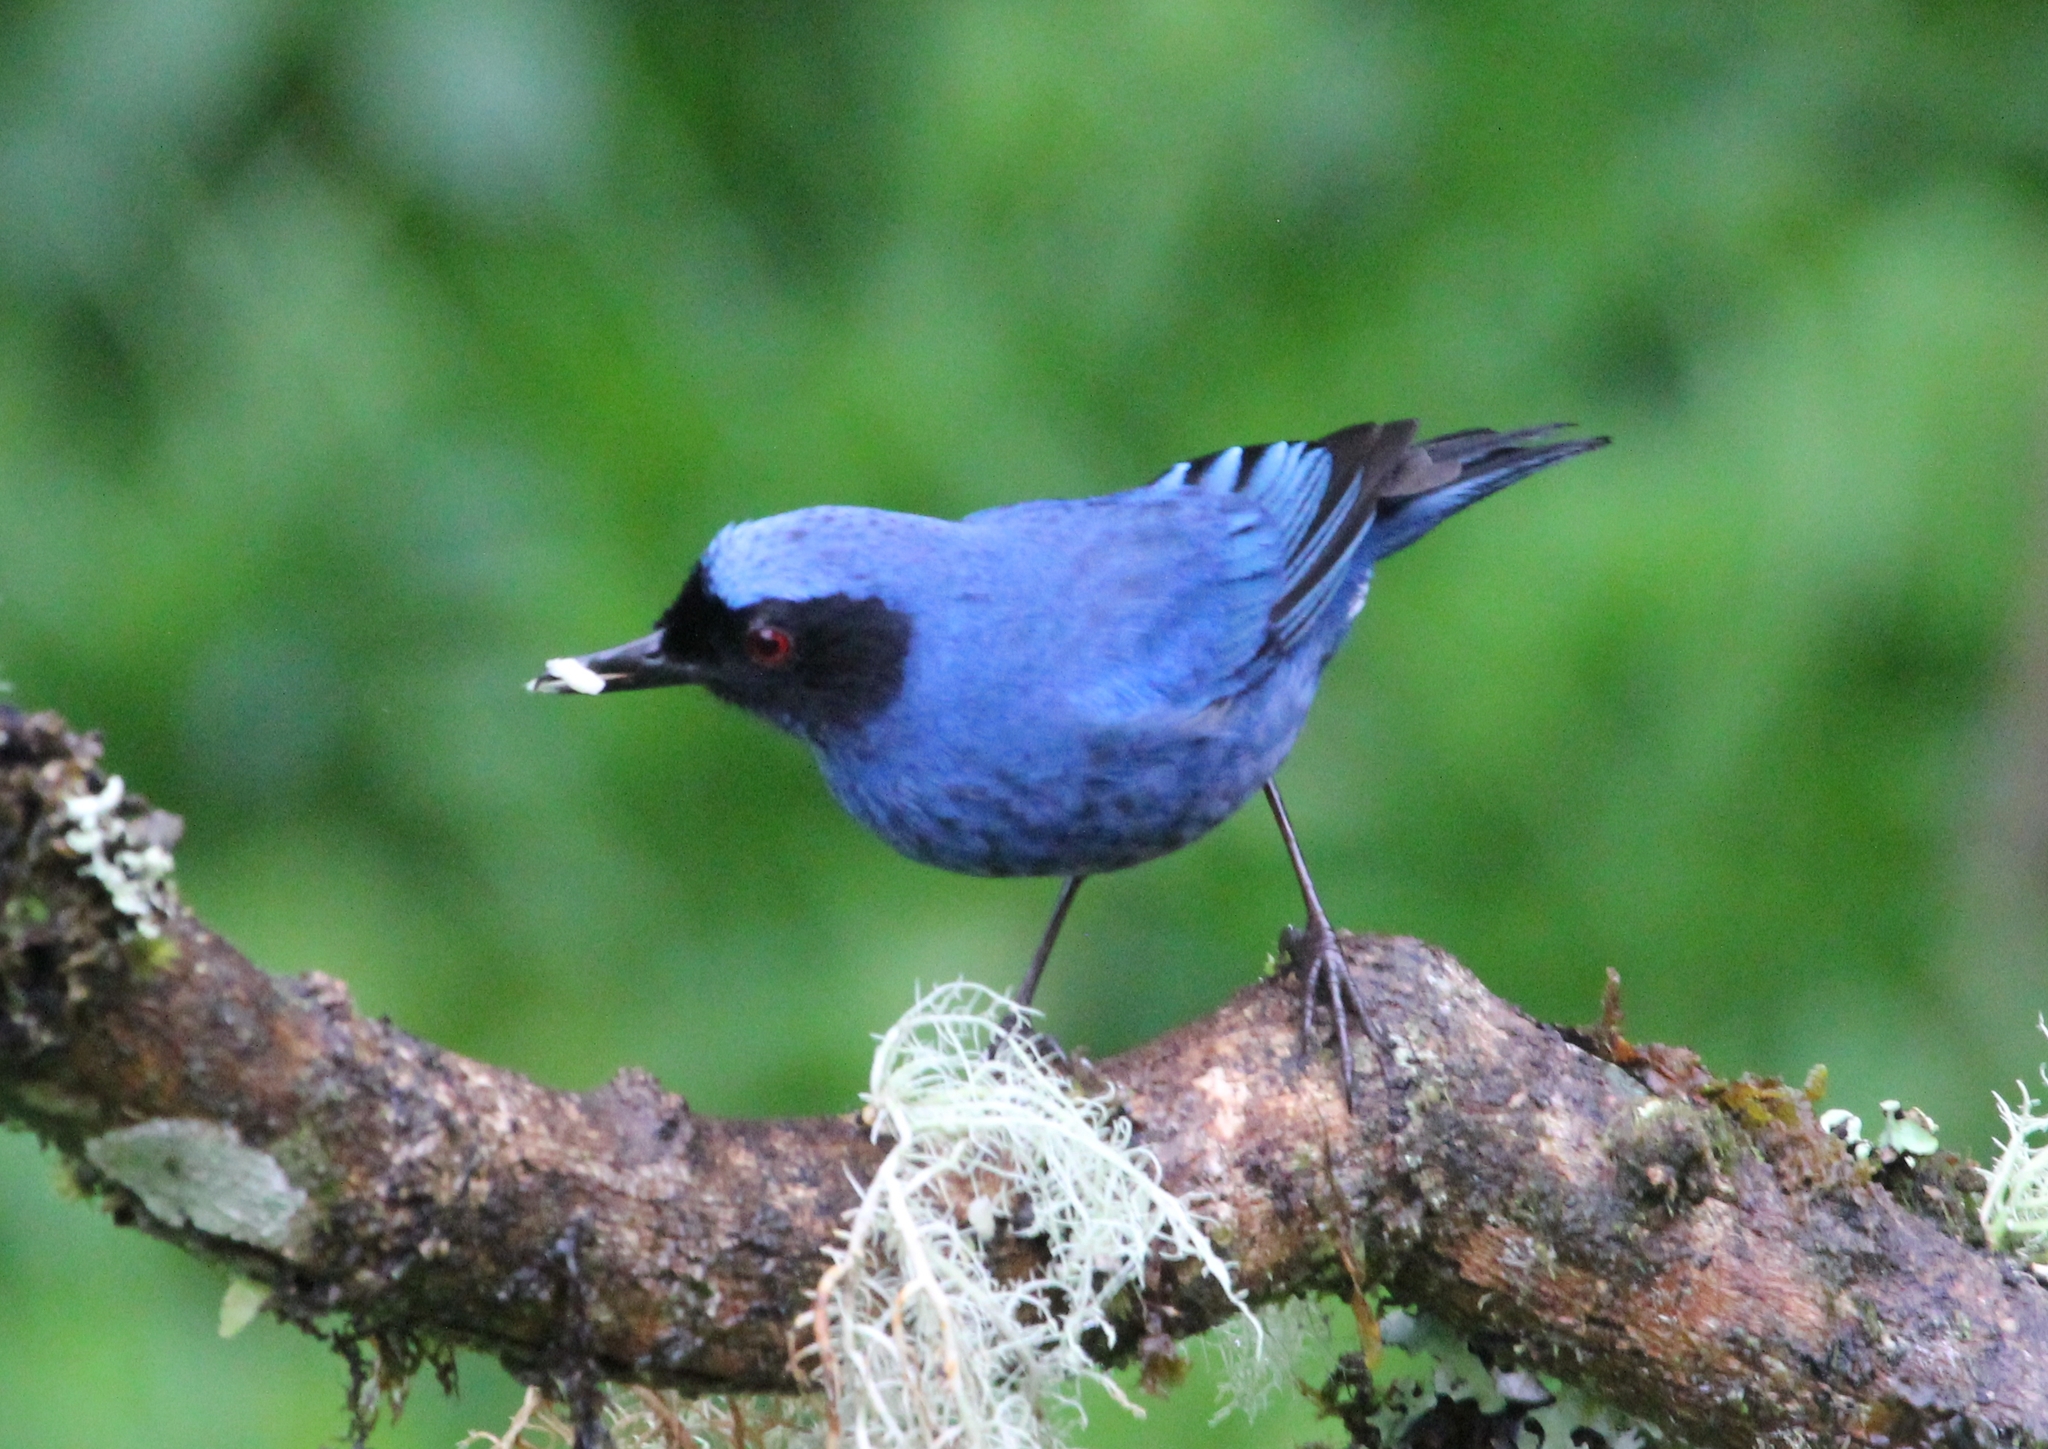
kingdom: Animalia
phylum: Chordata
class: Aves
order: Passeriformes
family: Thraupidae
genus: Diglossa
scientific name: Diglossa cyanea
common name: Masked flowerpiercer
